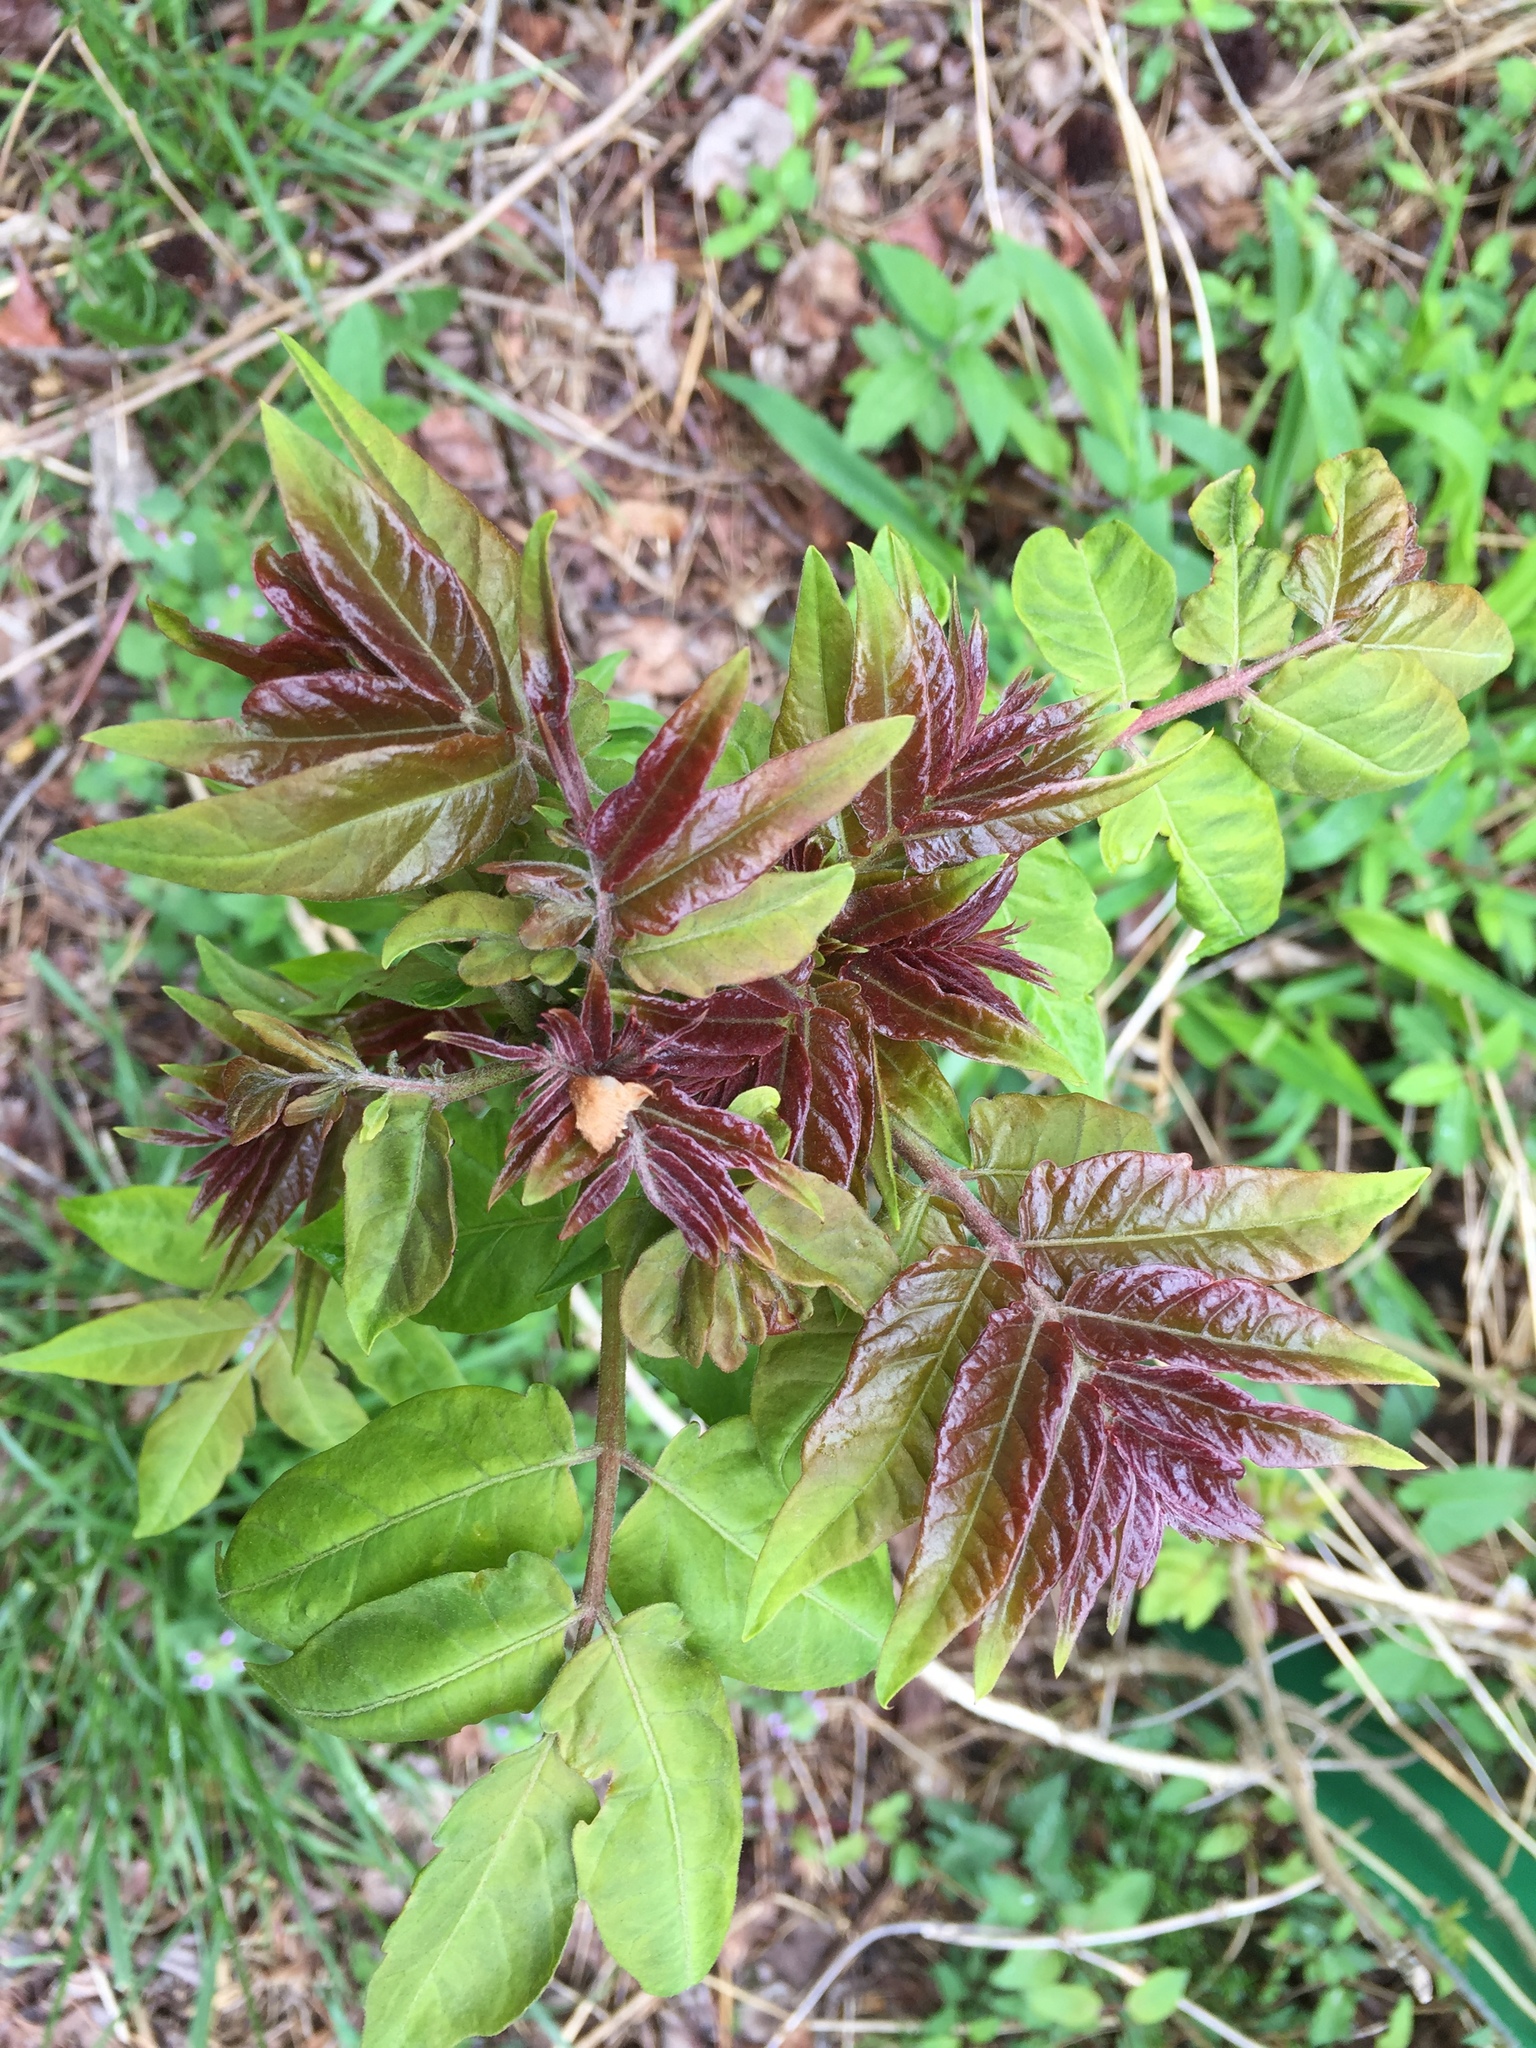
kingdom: Plantae
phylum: Tracheophyta
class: Magnoliopsida
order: Sapindales
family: Simaroubaceae
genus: Ailanthus
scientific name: Ailanthus altissima
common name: Tree-of-heaven
